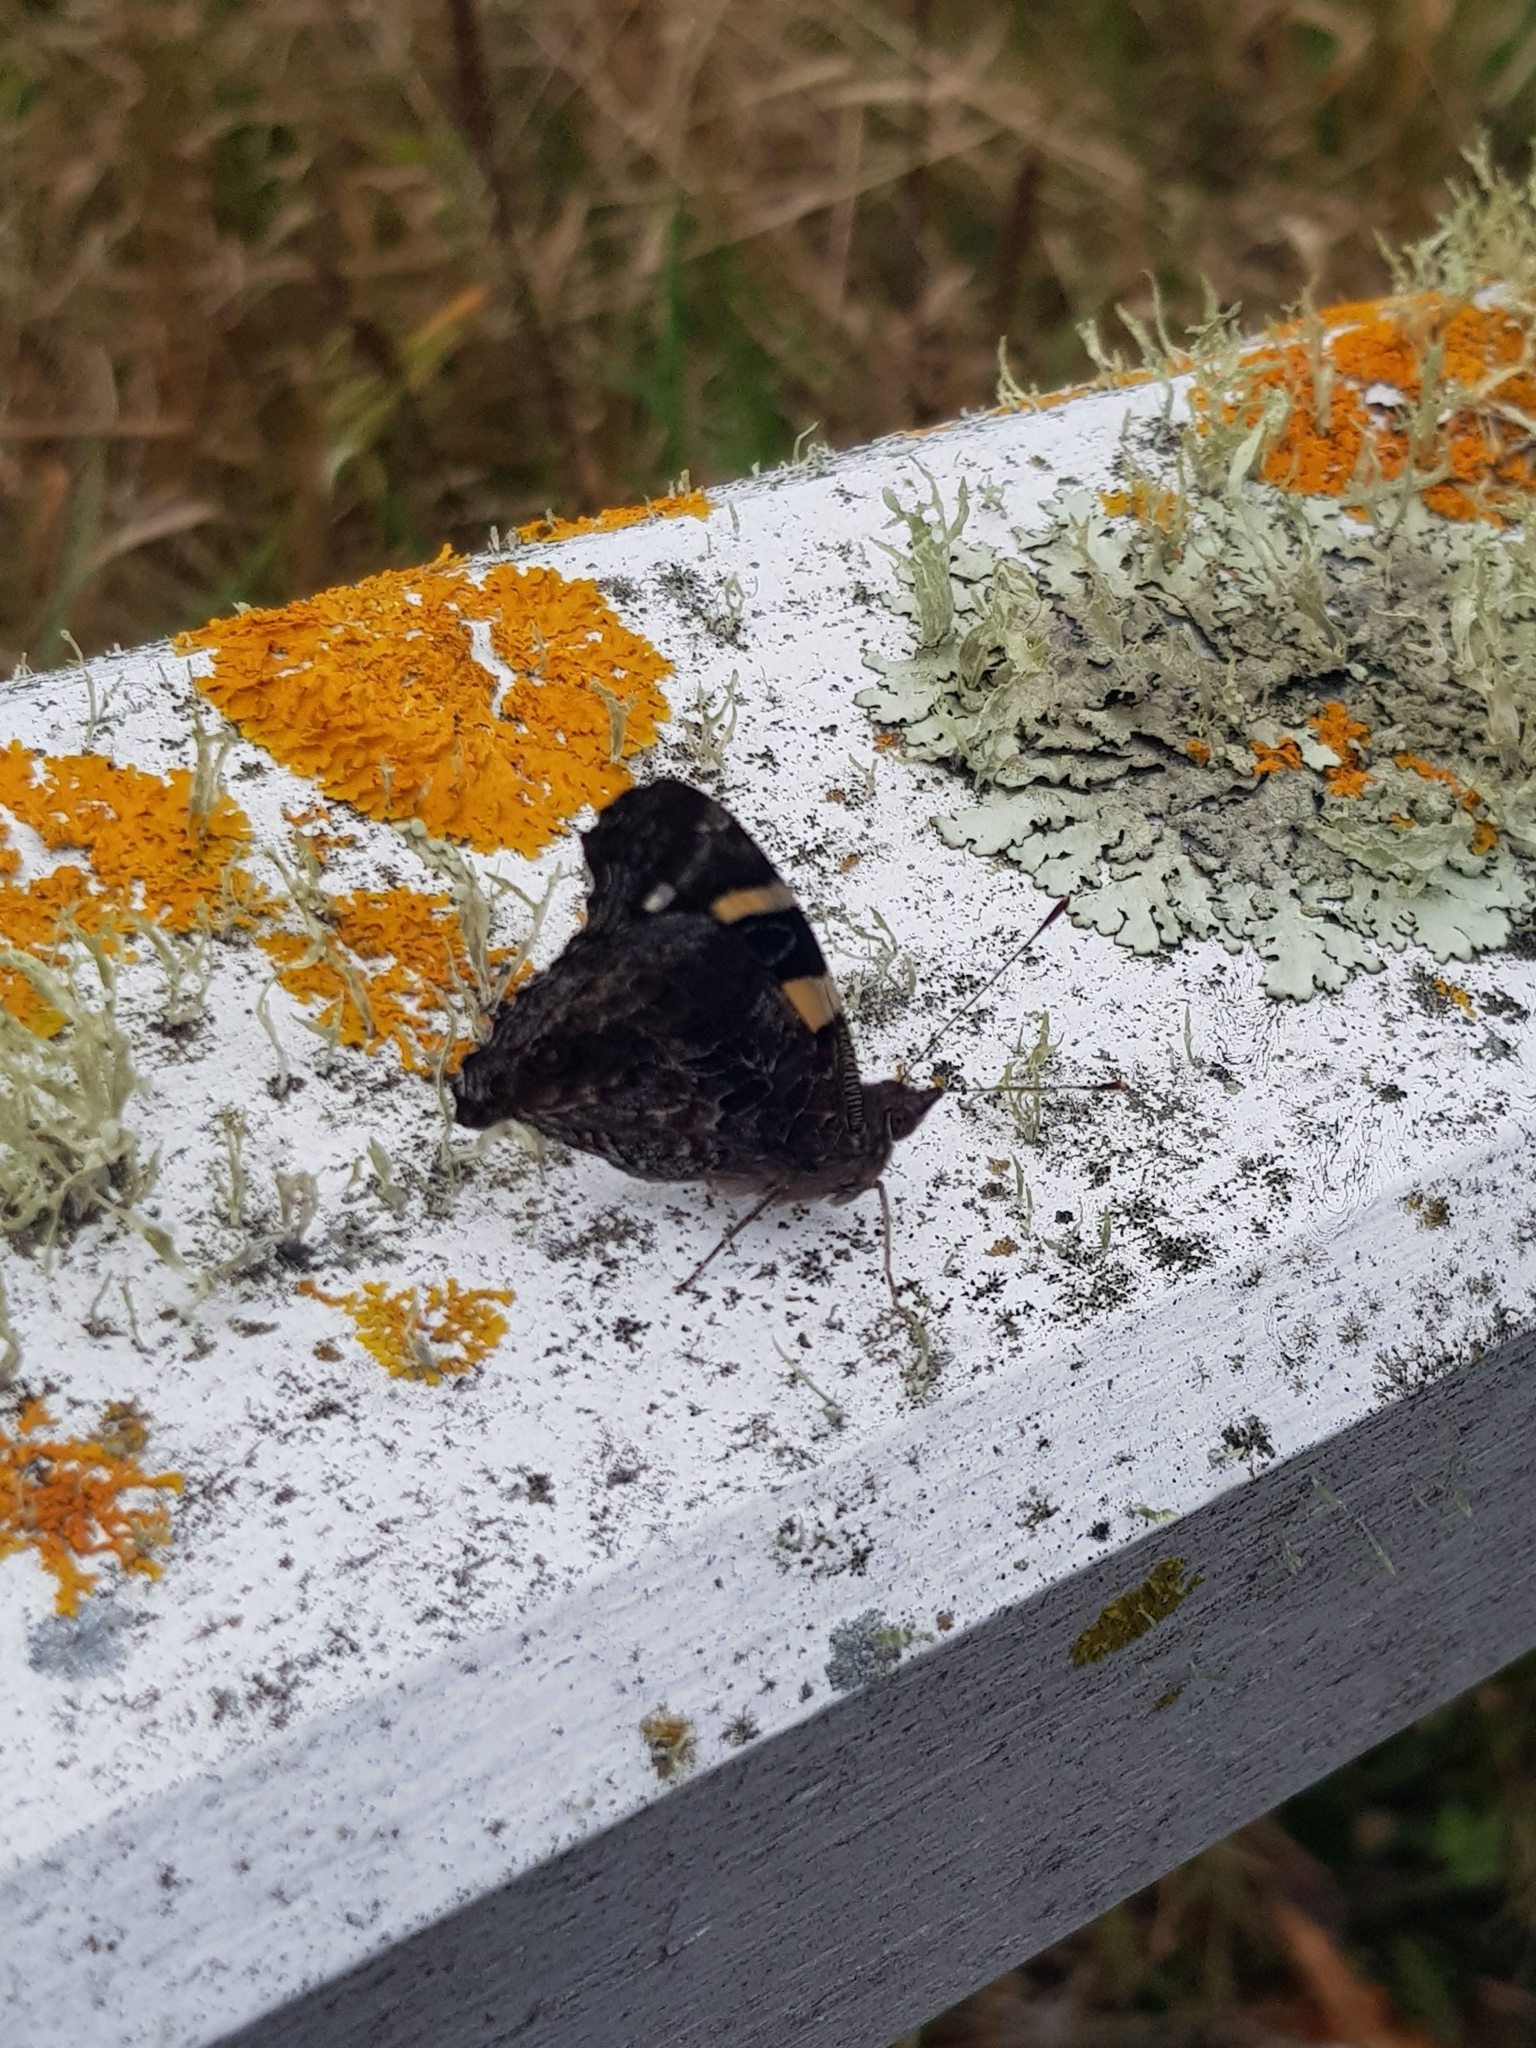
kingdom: Animalia
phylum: Arthropoda
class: Insecta
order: Lepidoptera
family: Nymphalidae
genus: Vanessa
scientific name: Vanessa itea
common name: Yellow admiral
